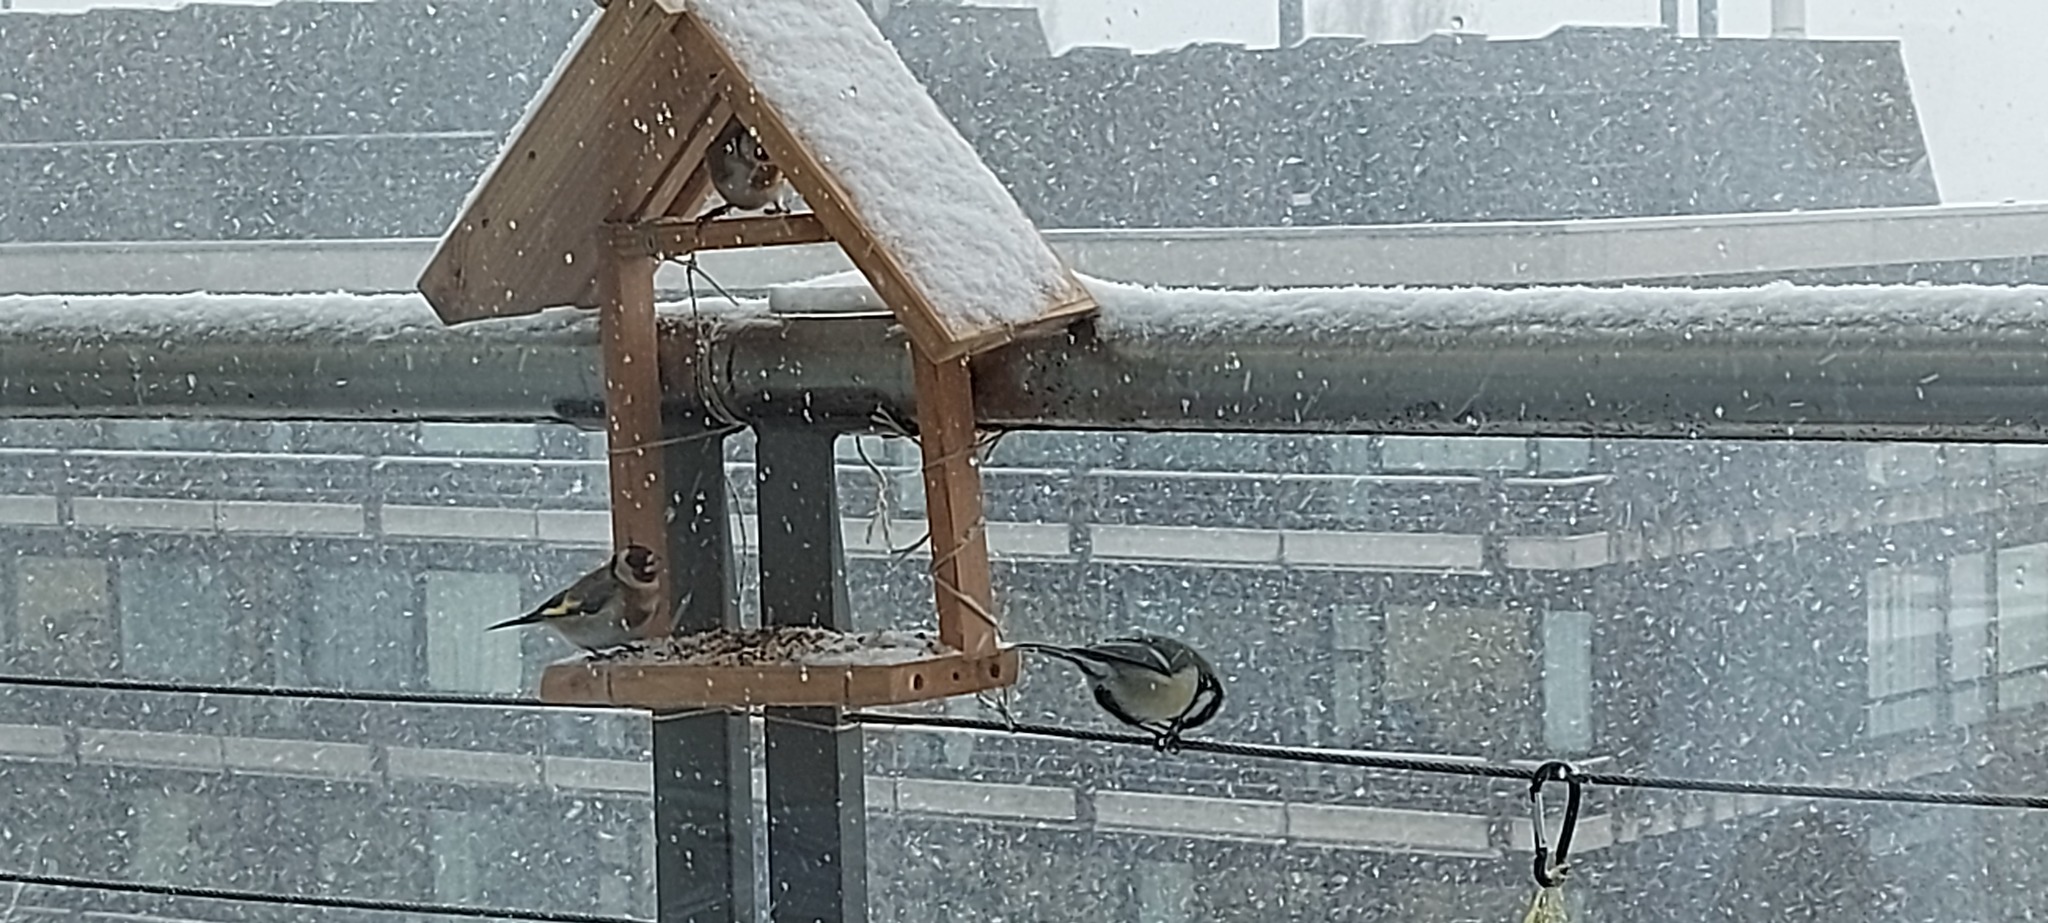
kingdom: Animalia
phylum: Chordata
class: Aves
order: Passeriformes
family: Fringillidae
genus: Carduelis
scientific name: Carduelis carduelis
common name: European goldfinch
